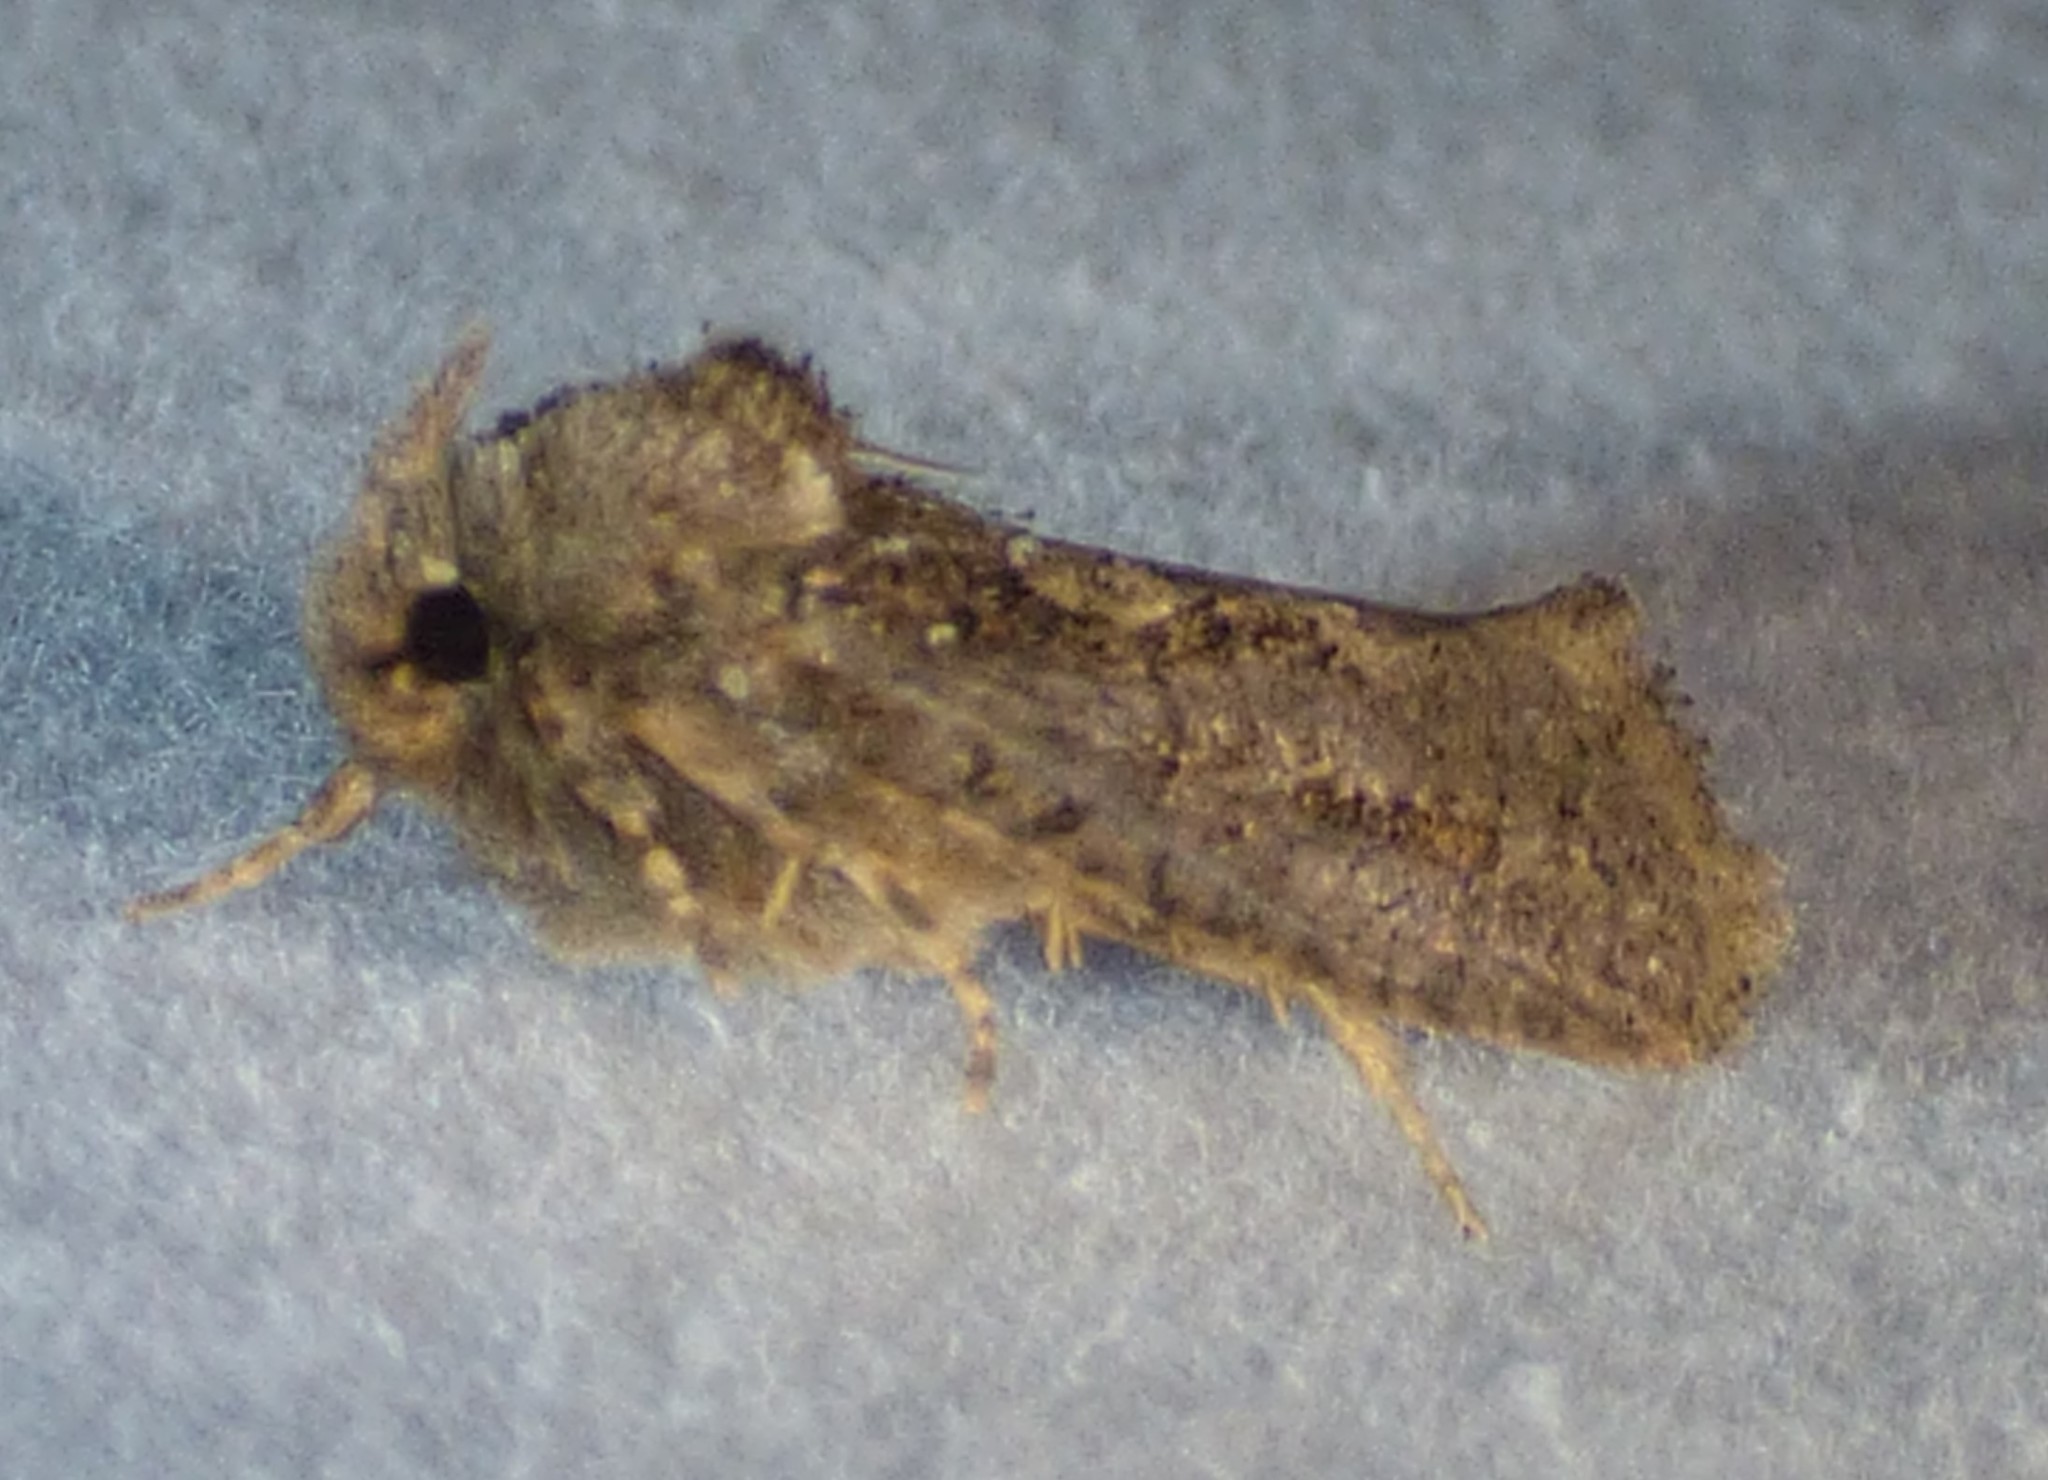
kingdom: Animalia
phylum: Arthropoda
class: Insecta
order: Lepidoptera
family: Tineidae
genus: Acrolophus
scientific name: Acrolophus arcanella
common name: Arcane grass tubeworm moth
